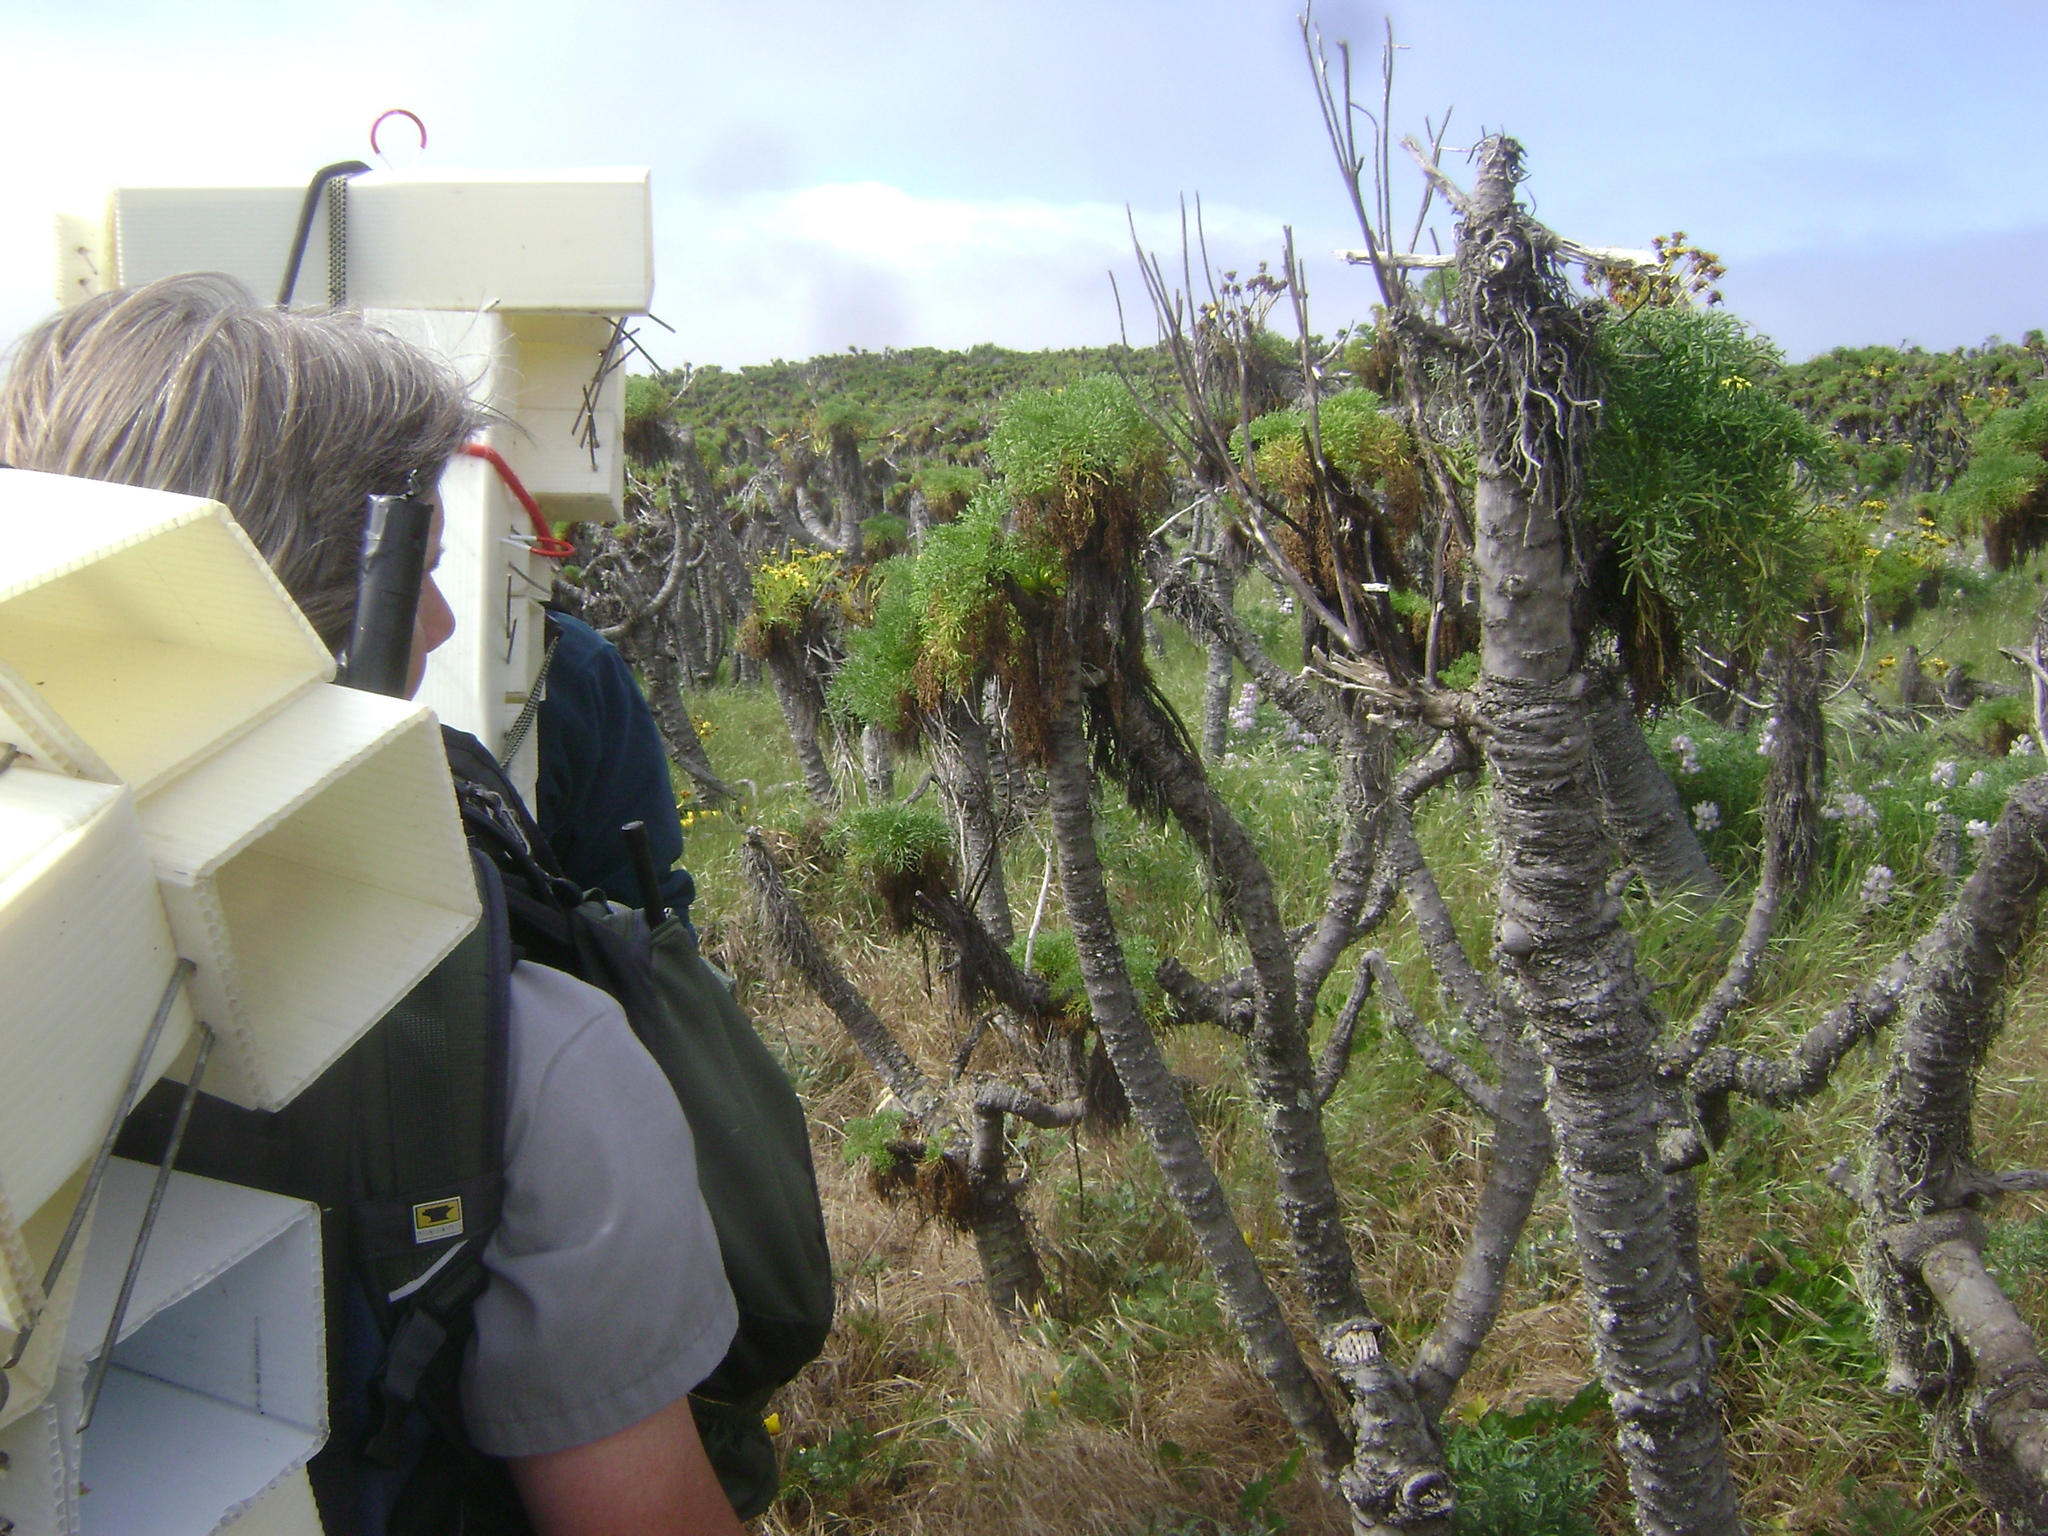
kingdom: Plantae
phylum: Tracheophyta
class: Magnoliopsida
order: Asterales
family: Asteraceae
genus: Coreopsis
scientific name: Coreopsis gigantea
